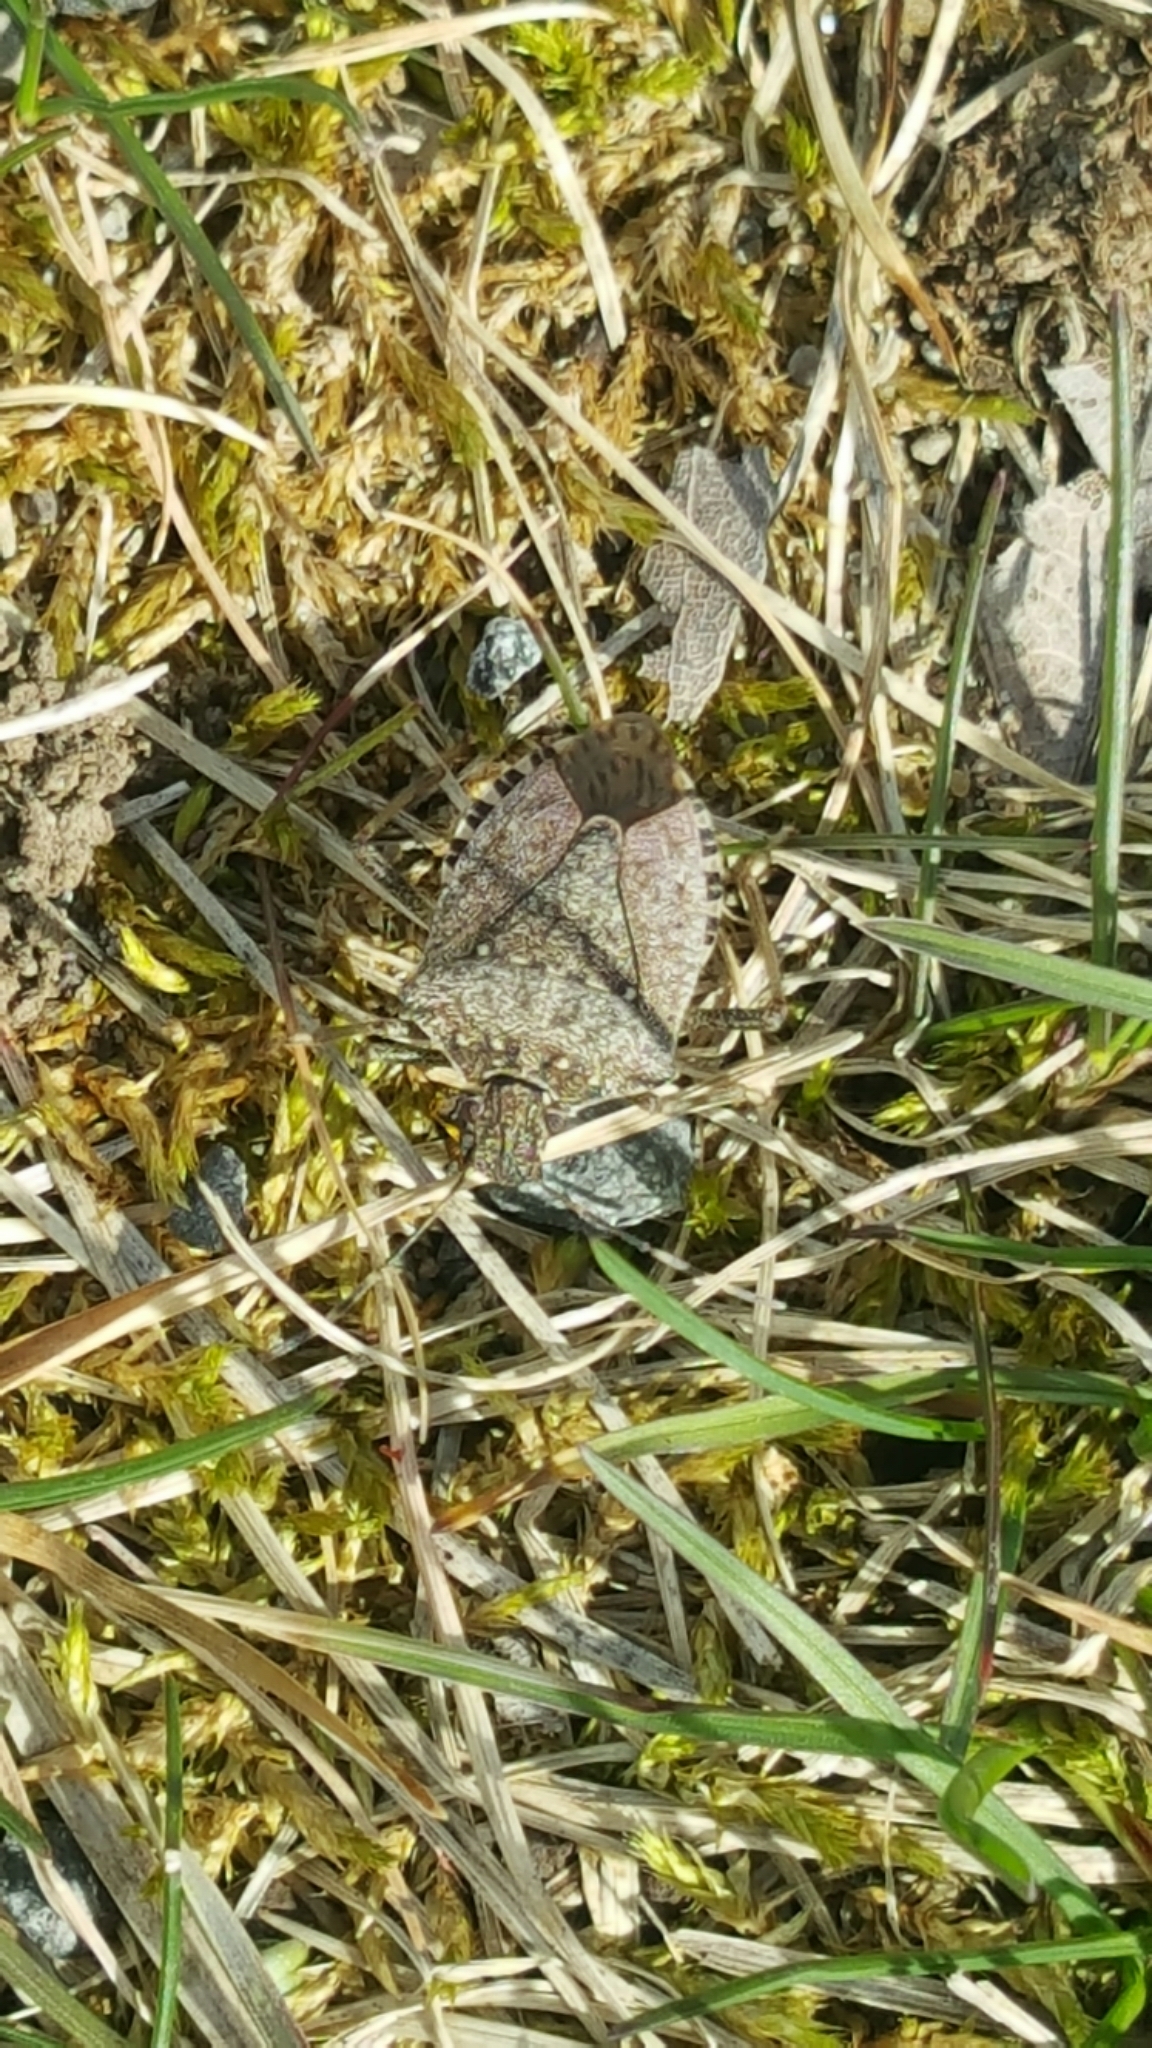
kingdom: Animalia
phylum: Arthropoda
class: Insecta
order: Hemiptera
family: Pentatomidae
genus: Halyomorpha
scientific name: Halyomorpha halys
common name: Brown marmorated stink bug
